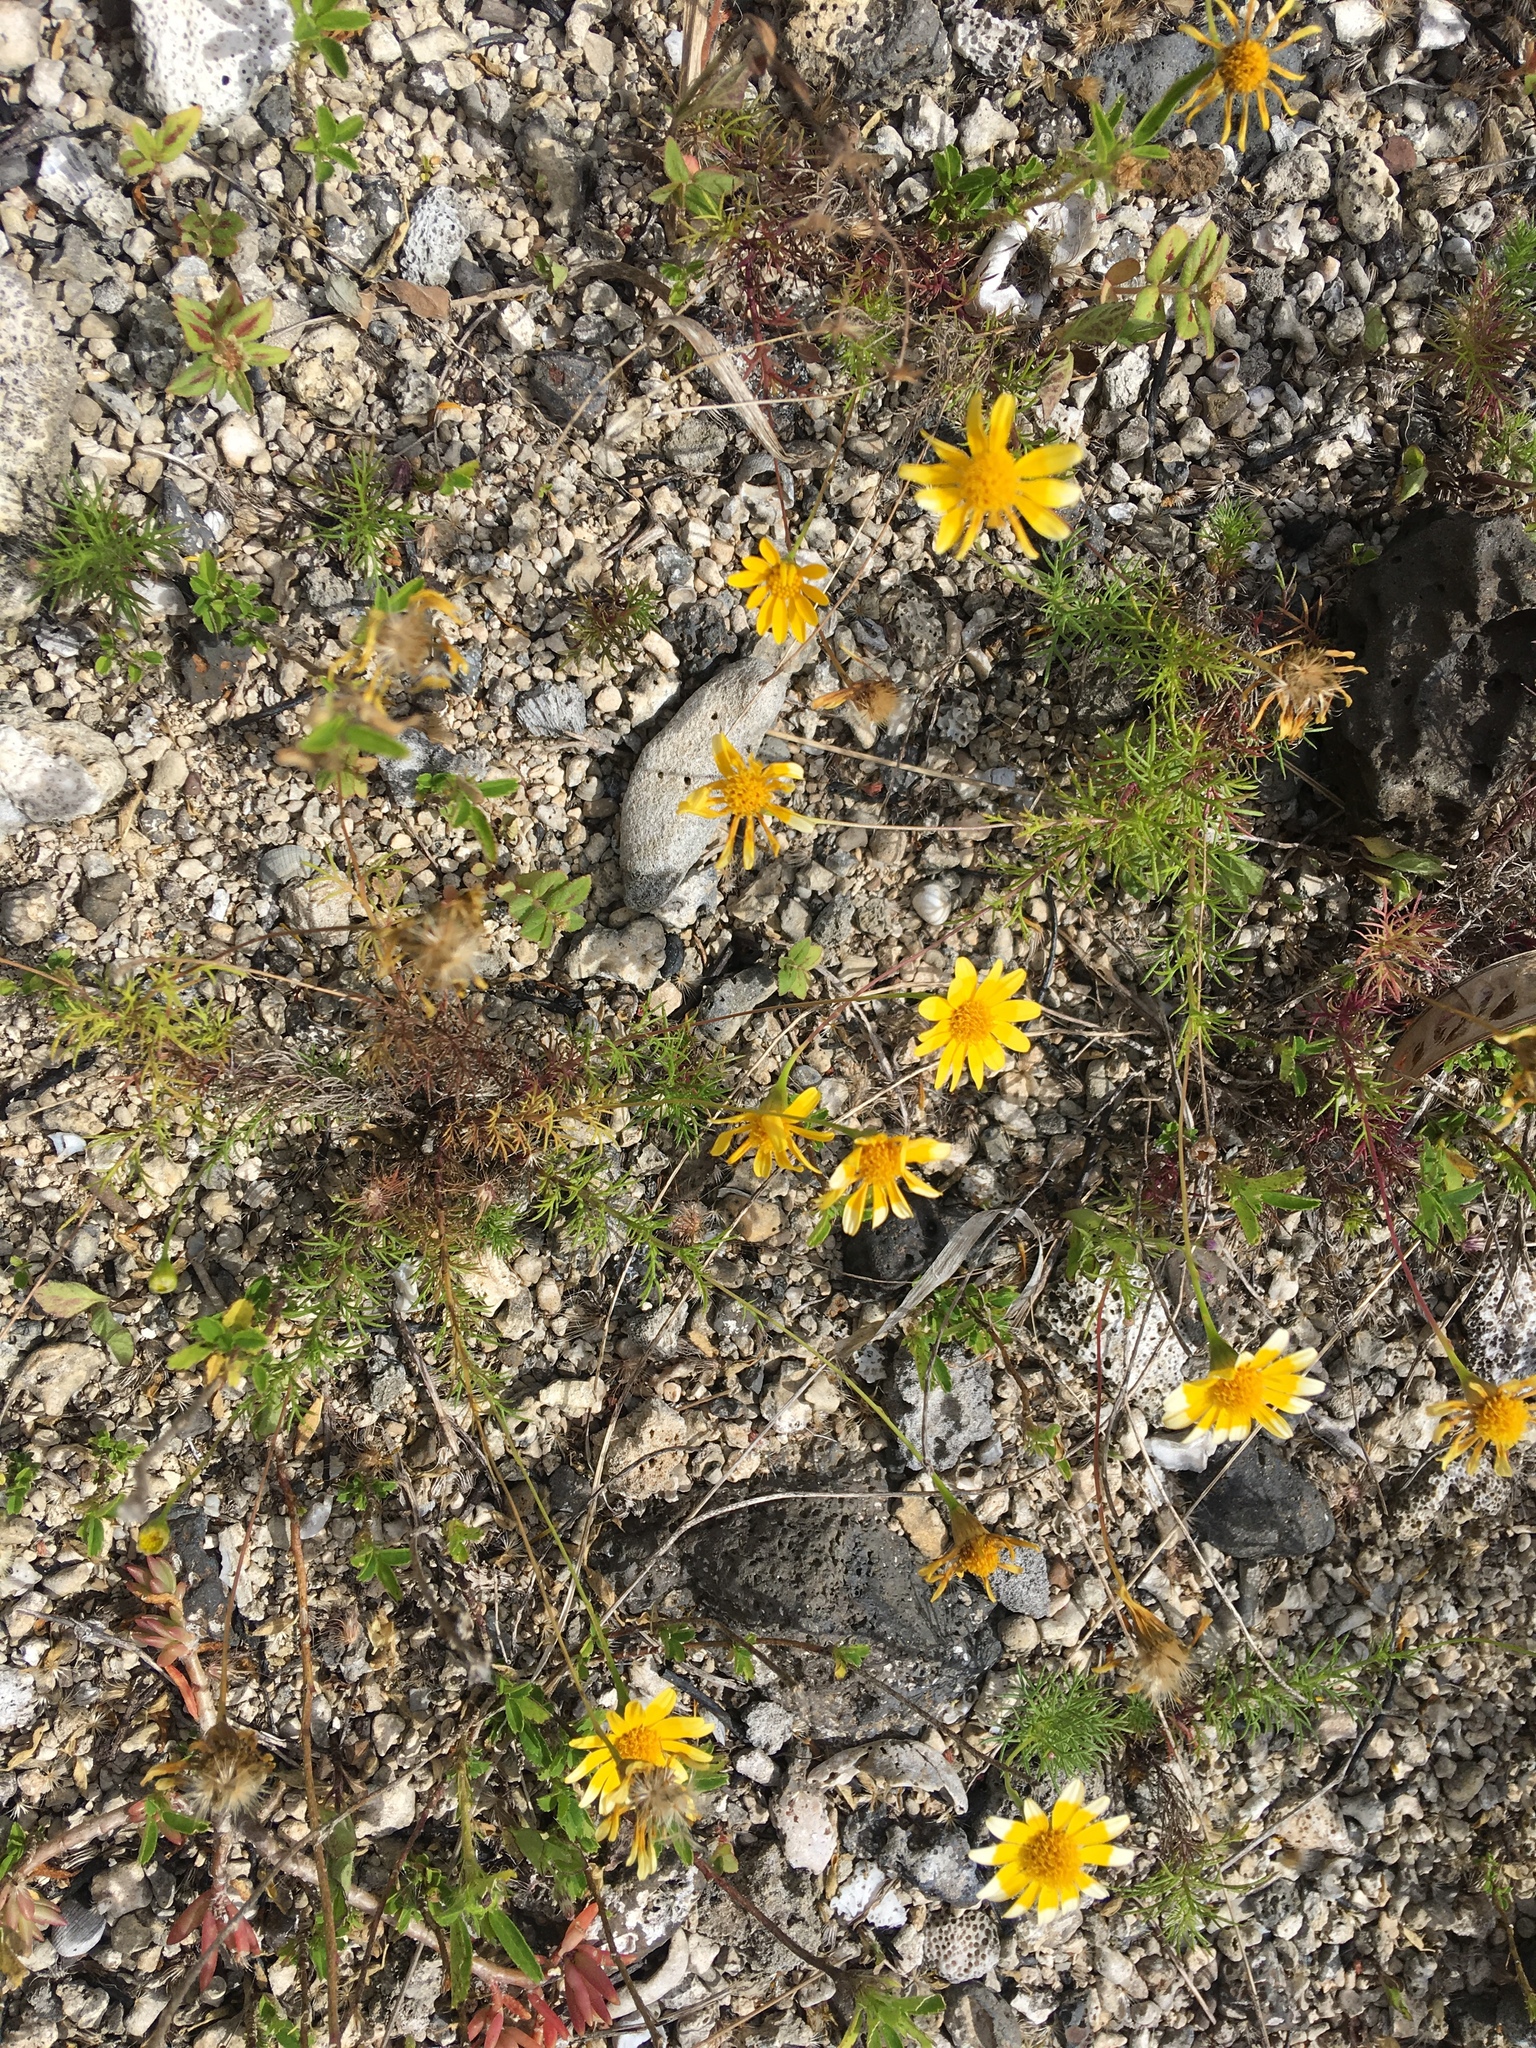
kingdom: Plantae
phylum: Tracheophyta
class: Magnoliopsida
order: Asterales
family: Asteraceae
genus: Thymophylla
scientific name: Thymophylla tenuiloba
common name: Dahlberg's daisy
